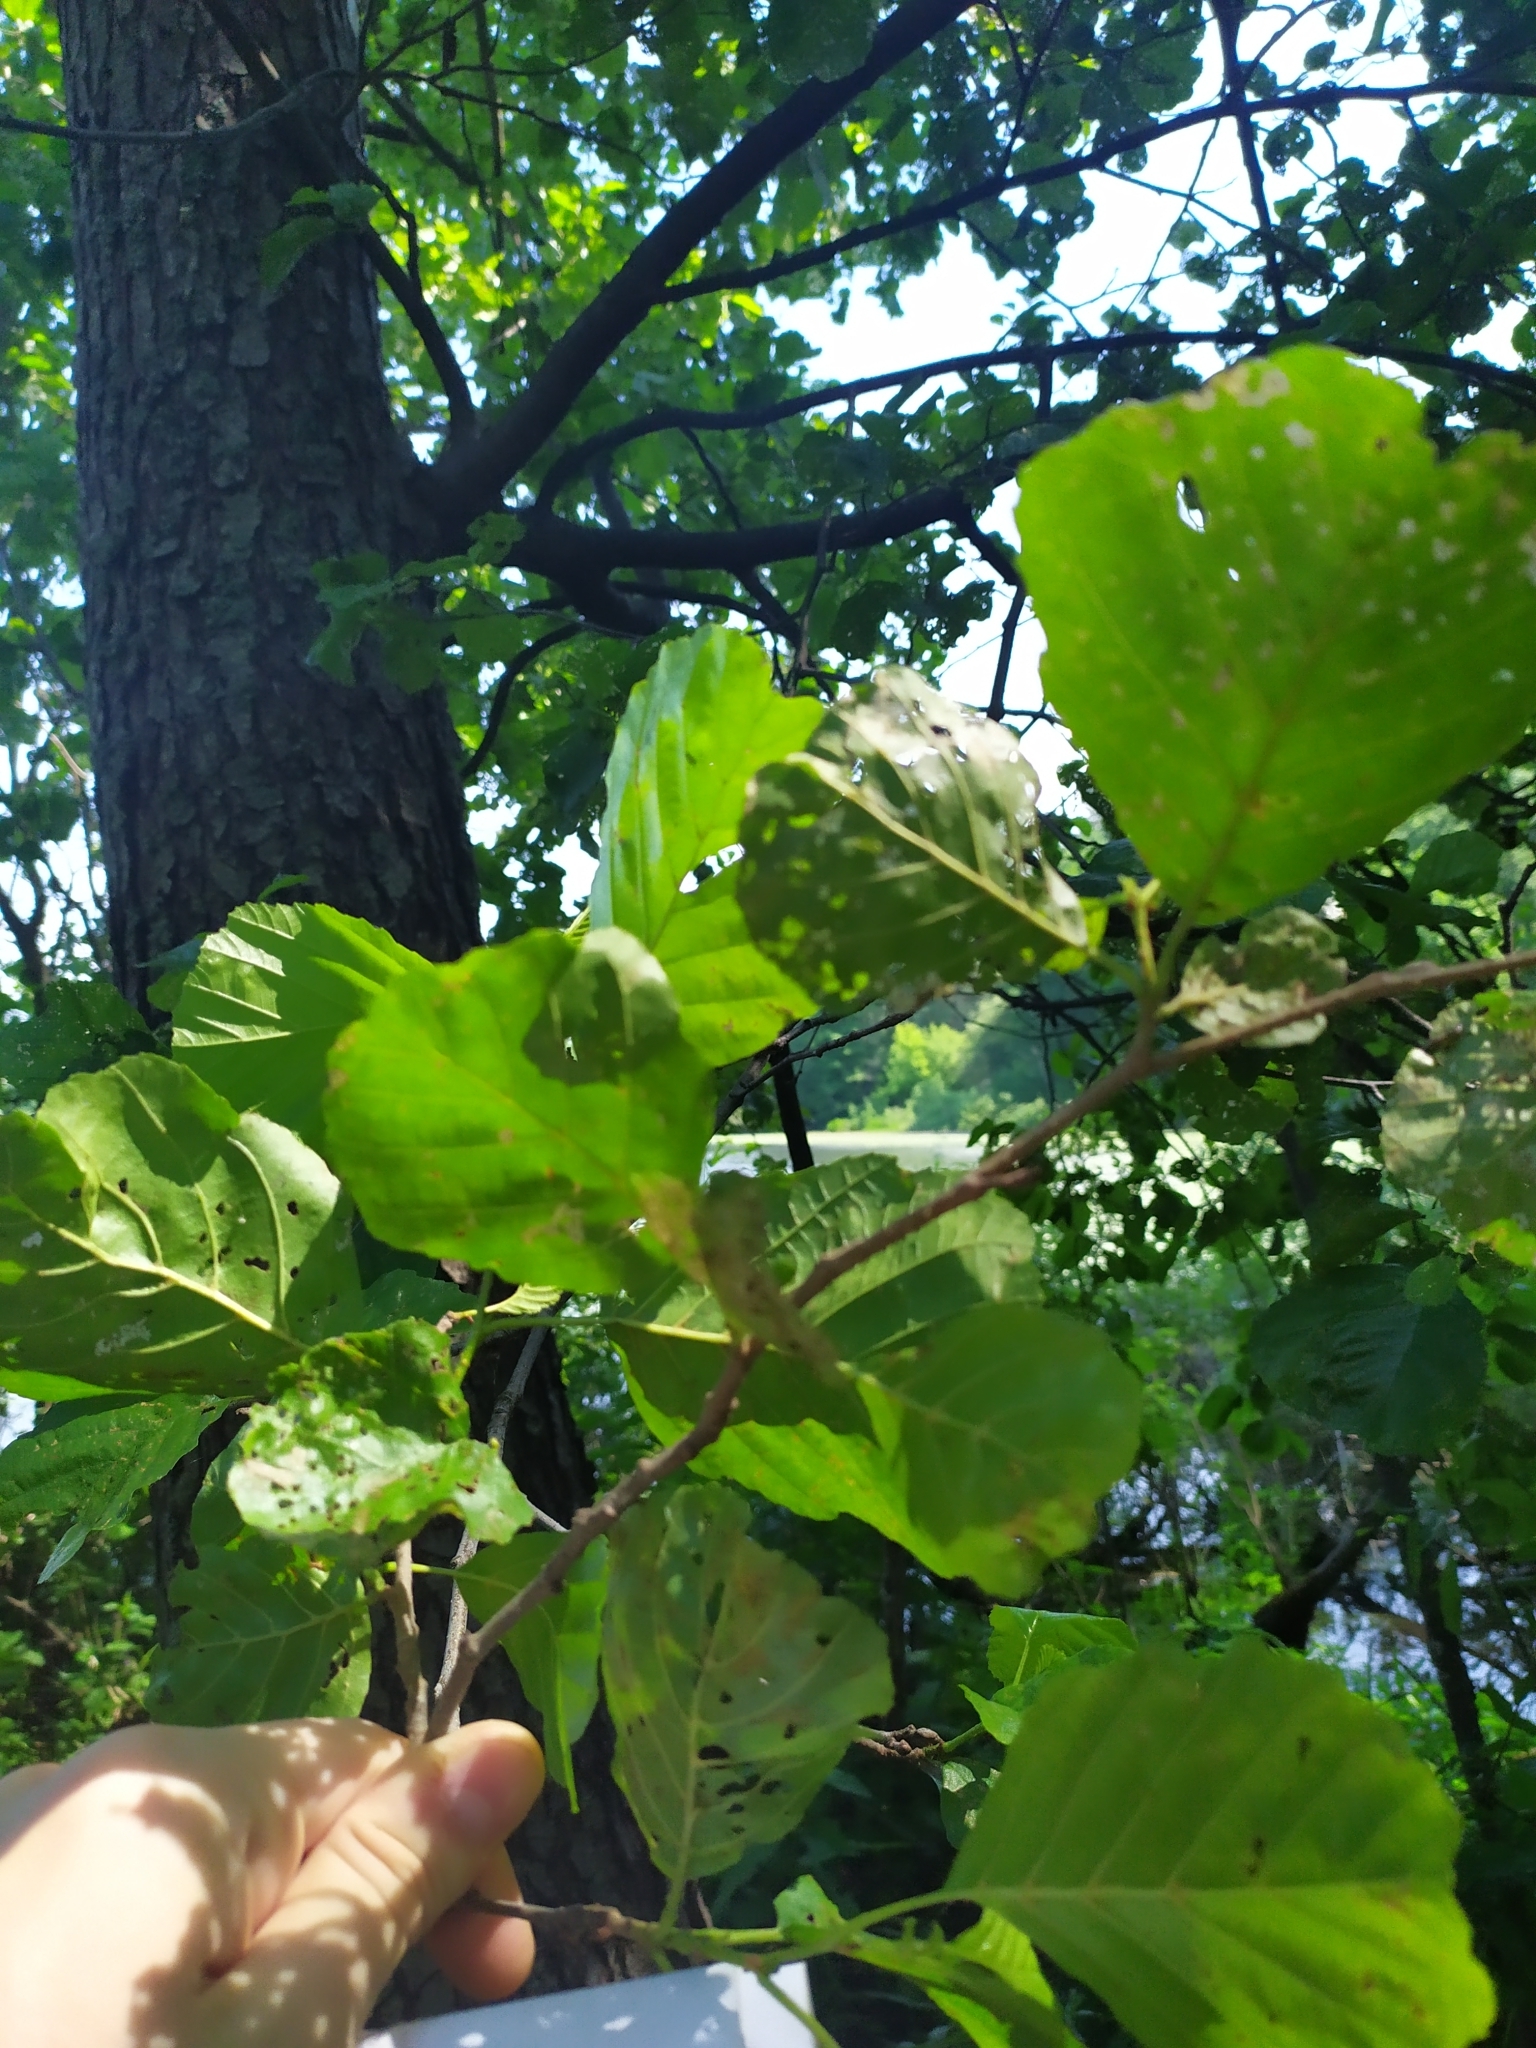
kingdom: Plantae
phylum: Tracheophyta
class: Magnoliopsida
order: Fagales
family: Betulaceae
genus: Alnus
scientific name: Alnus glutinosa
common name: Black alder
